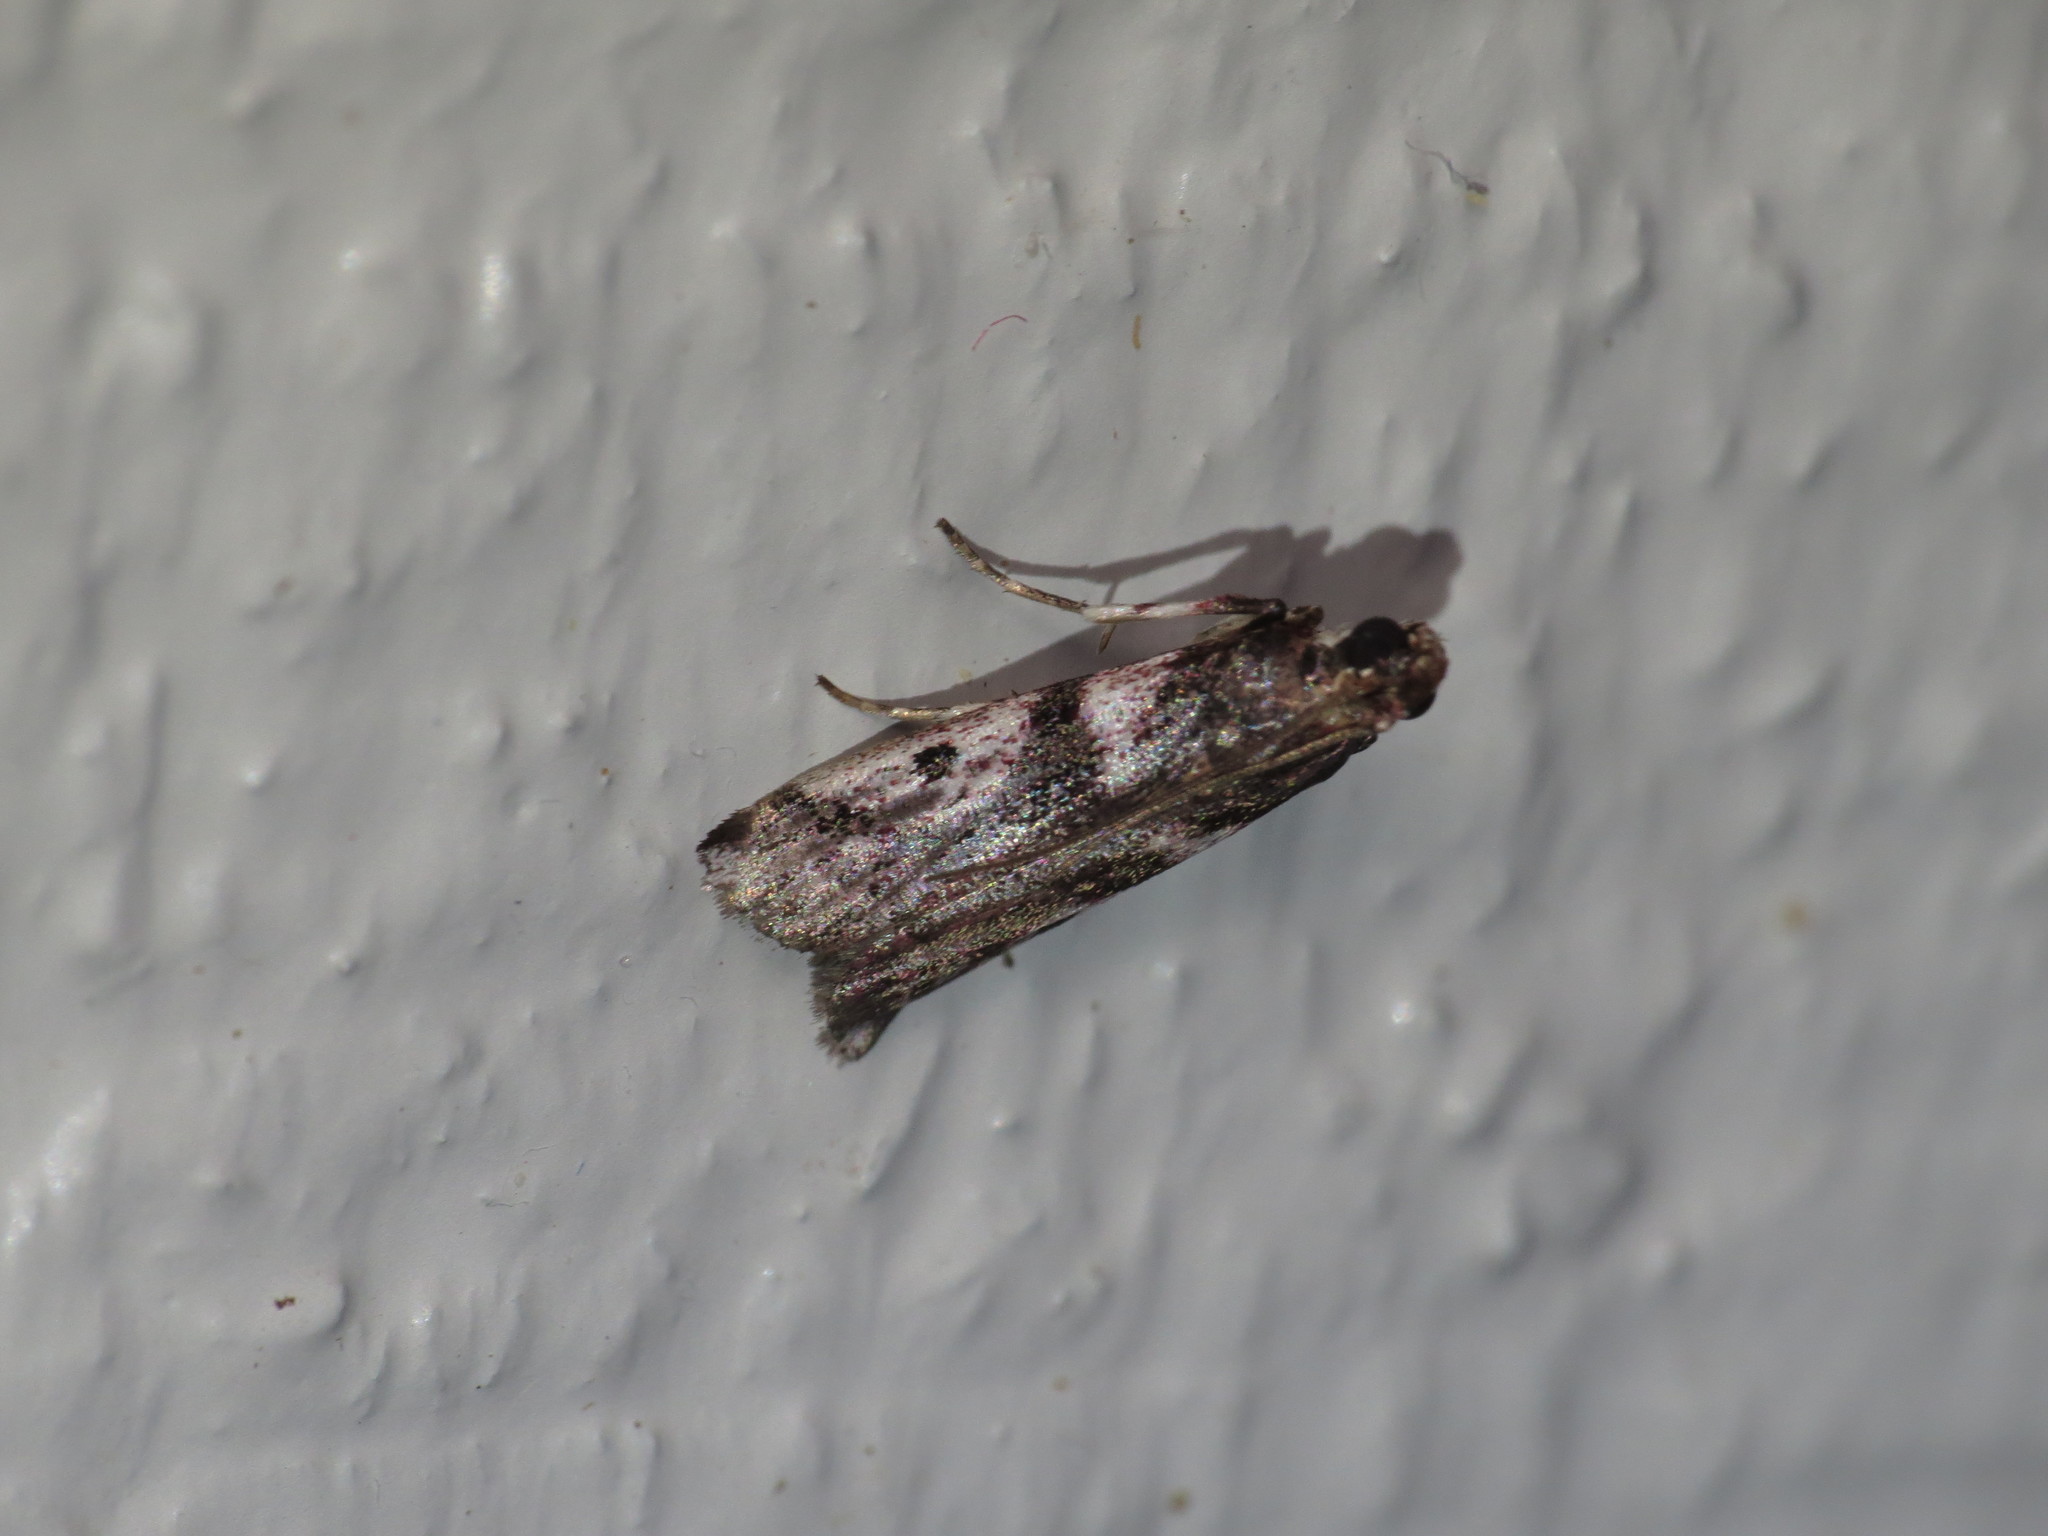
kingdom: Animalia
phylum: Arthropoda
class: Insecta
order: Lepidoptera
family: Pyralidae
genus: Rhodophaea
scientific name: Rhodophaea
